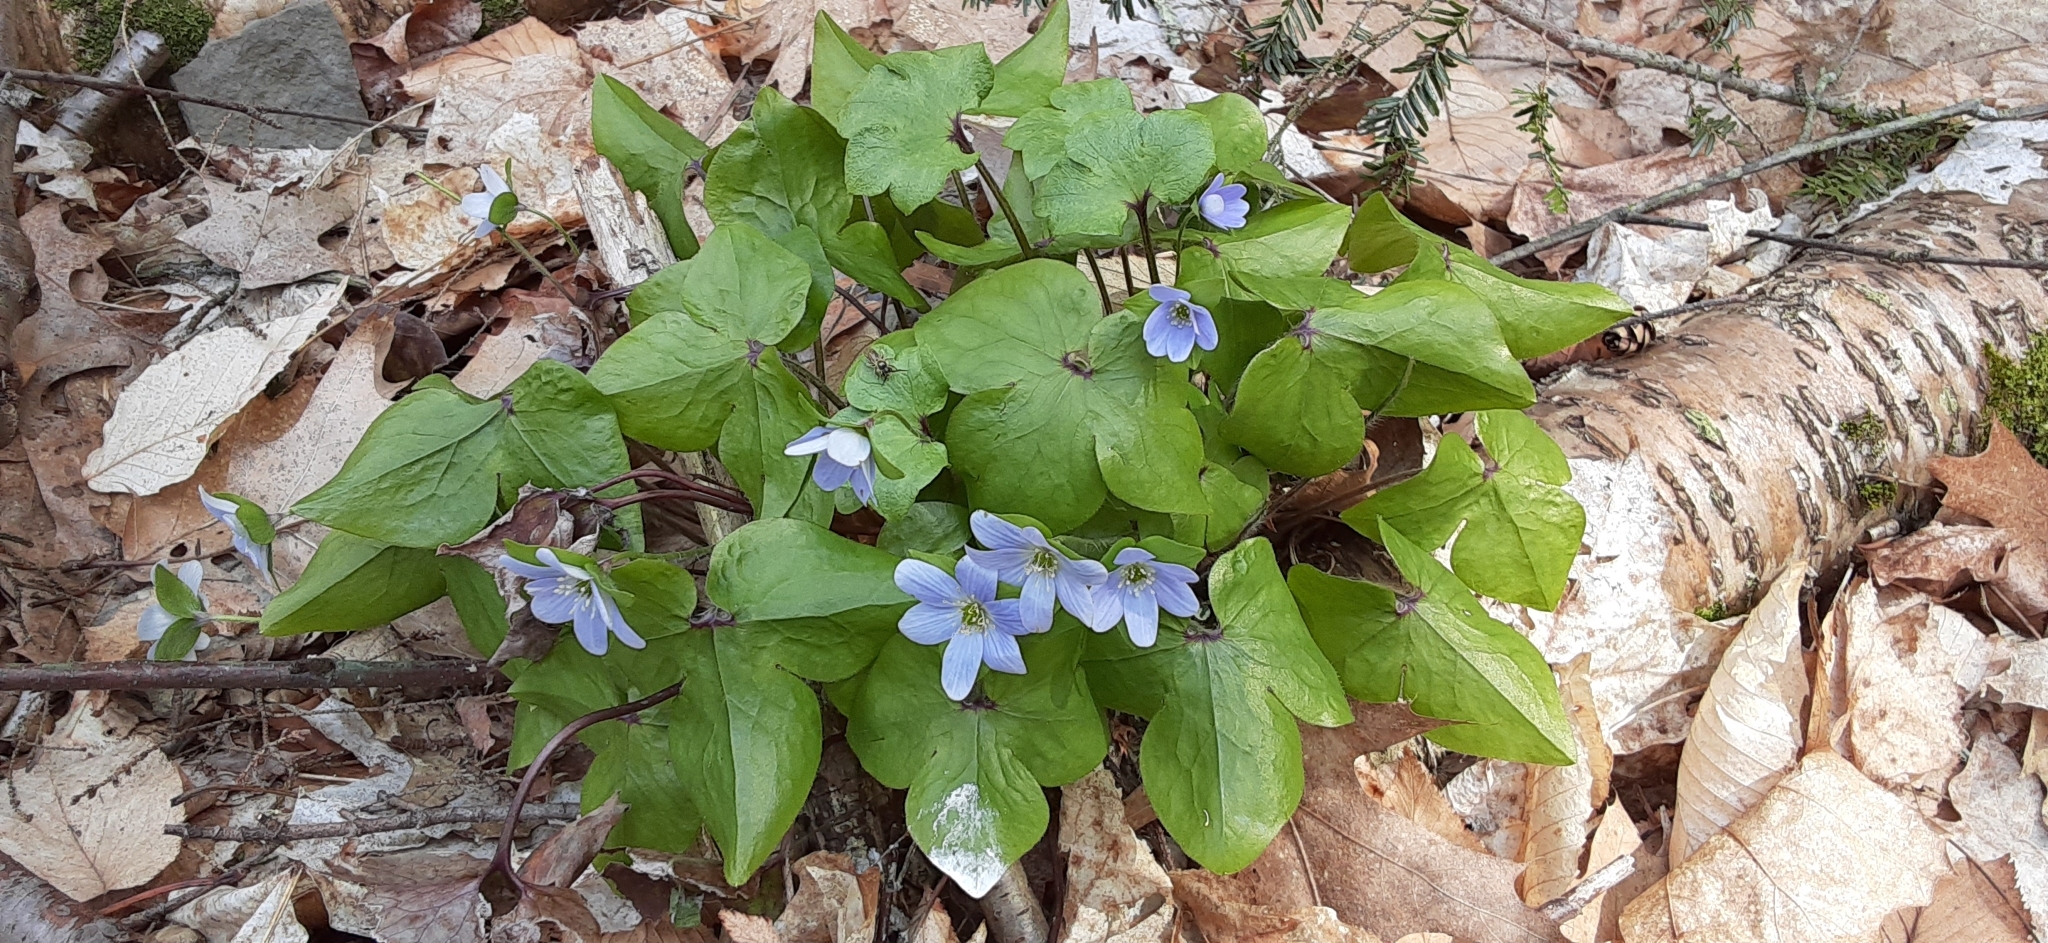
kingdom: Plantae
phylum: Tracheophyta
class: Magnoliopsida
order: Ranunculales
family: Ranunculaceae
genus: Hepatica
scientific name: Hepatica acutiloba
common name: Sharp-lobed hepatica
